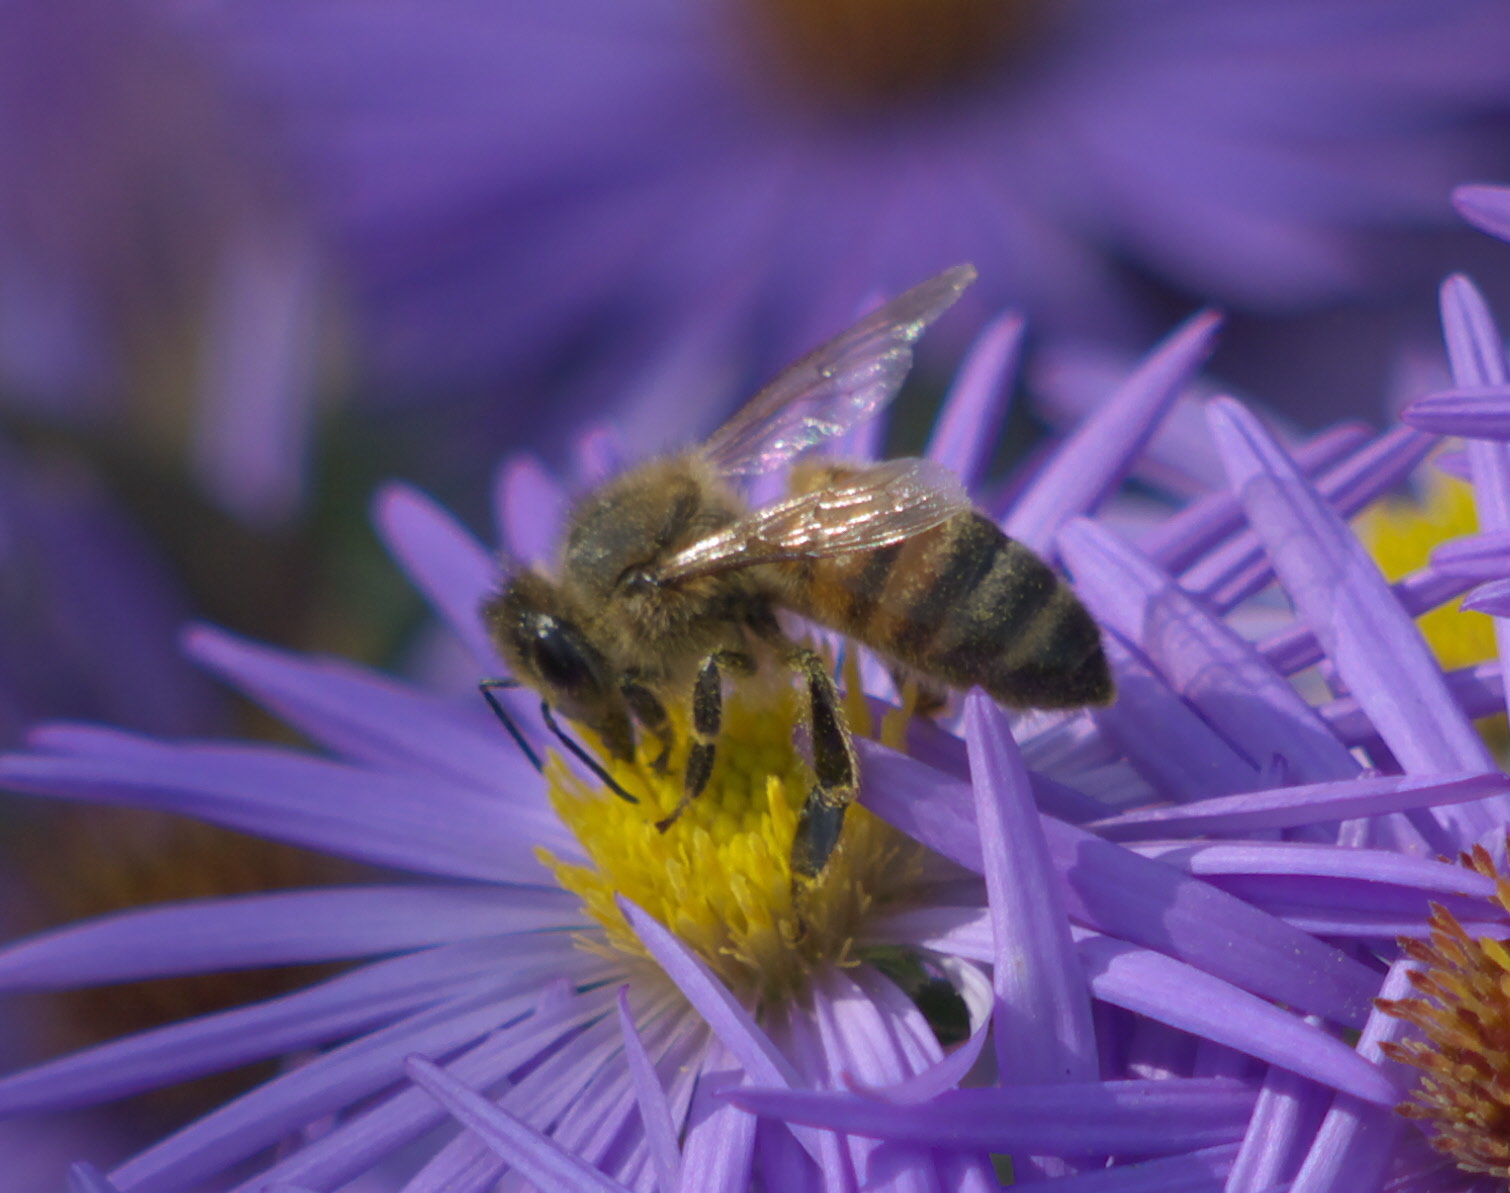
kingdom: Animalia
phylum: Arthropoda
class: Insecta
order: Hymenoptera
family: Apidae
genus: Apis
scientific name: Apis mellifera
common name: Honey bee
